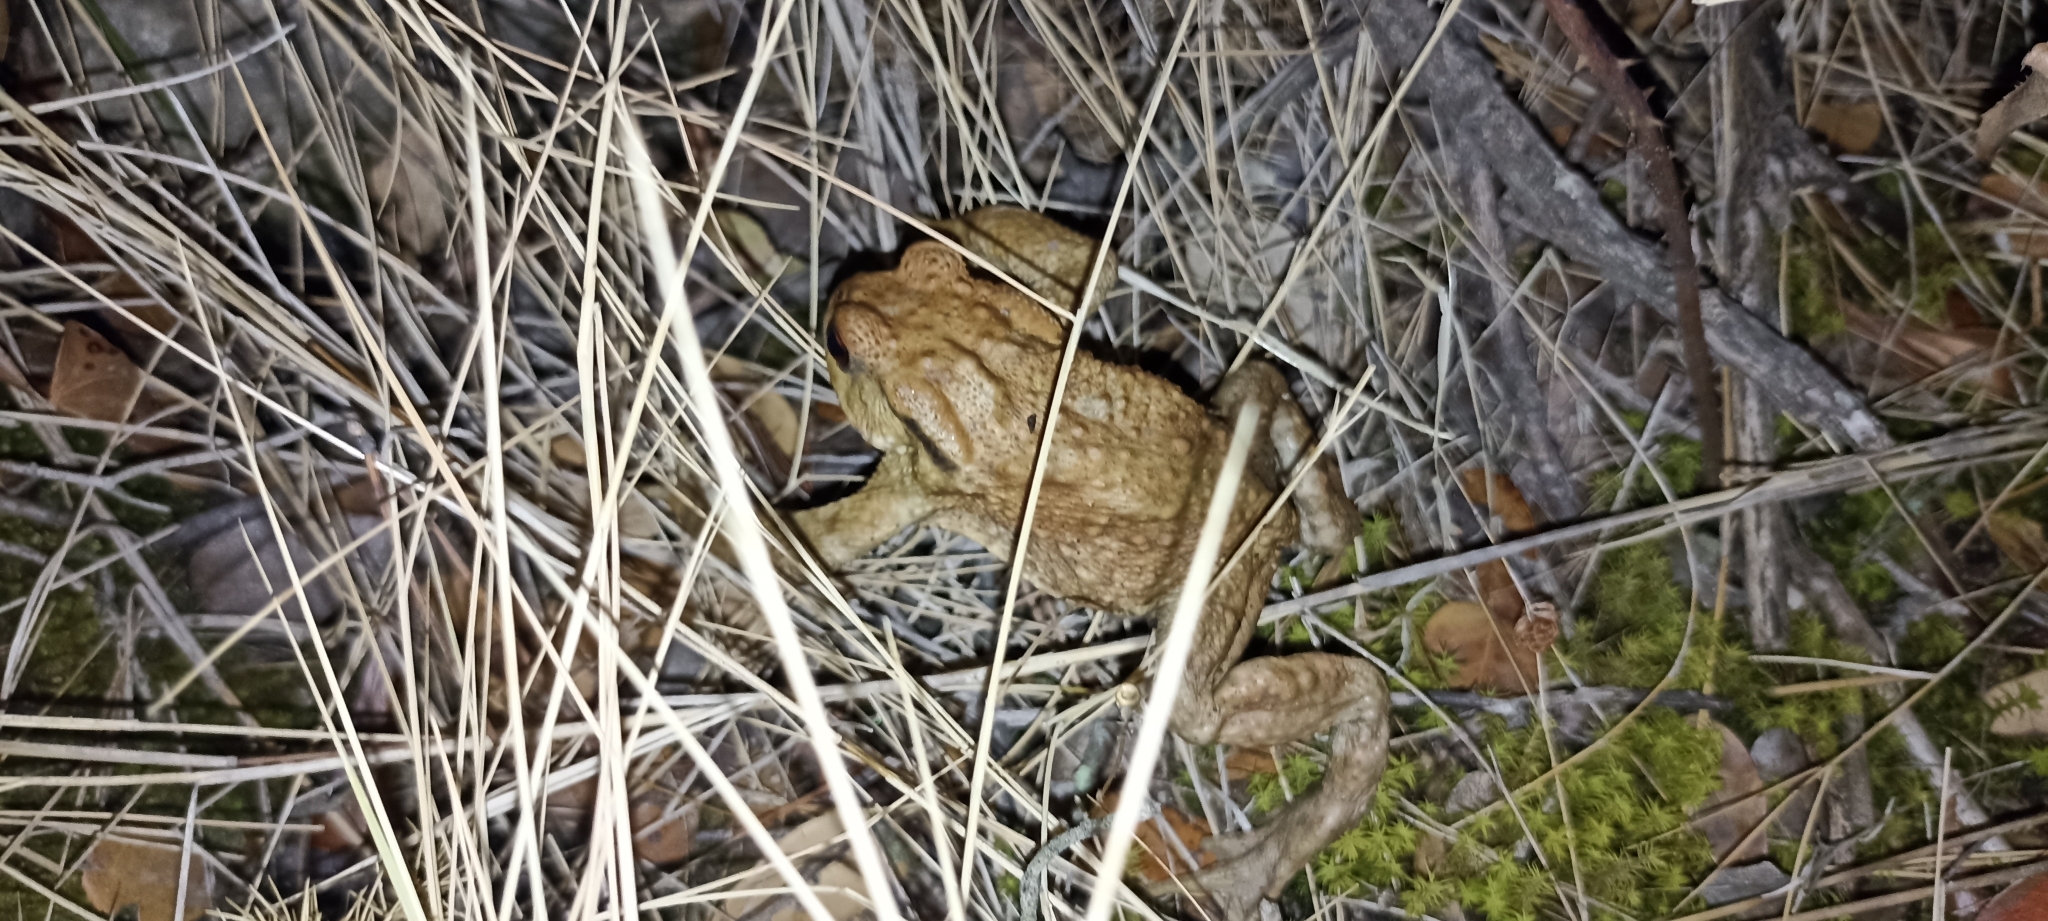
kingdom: Animalia
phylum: Chordata
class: Amphibia
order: Anura
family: Bufonidae
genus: Bufo
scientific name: Bufo spinosus
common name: Western common toad
